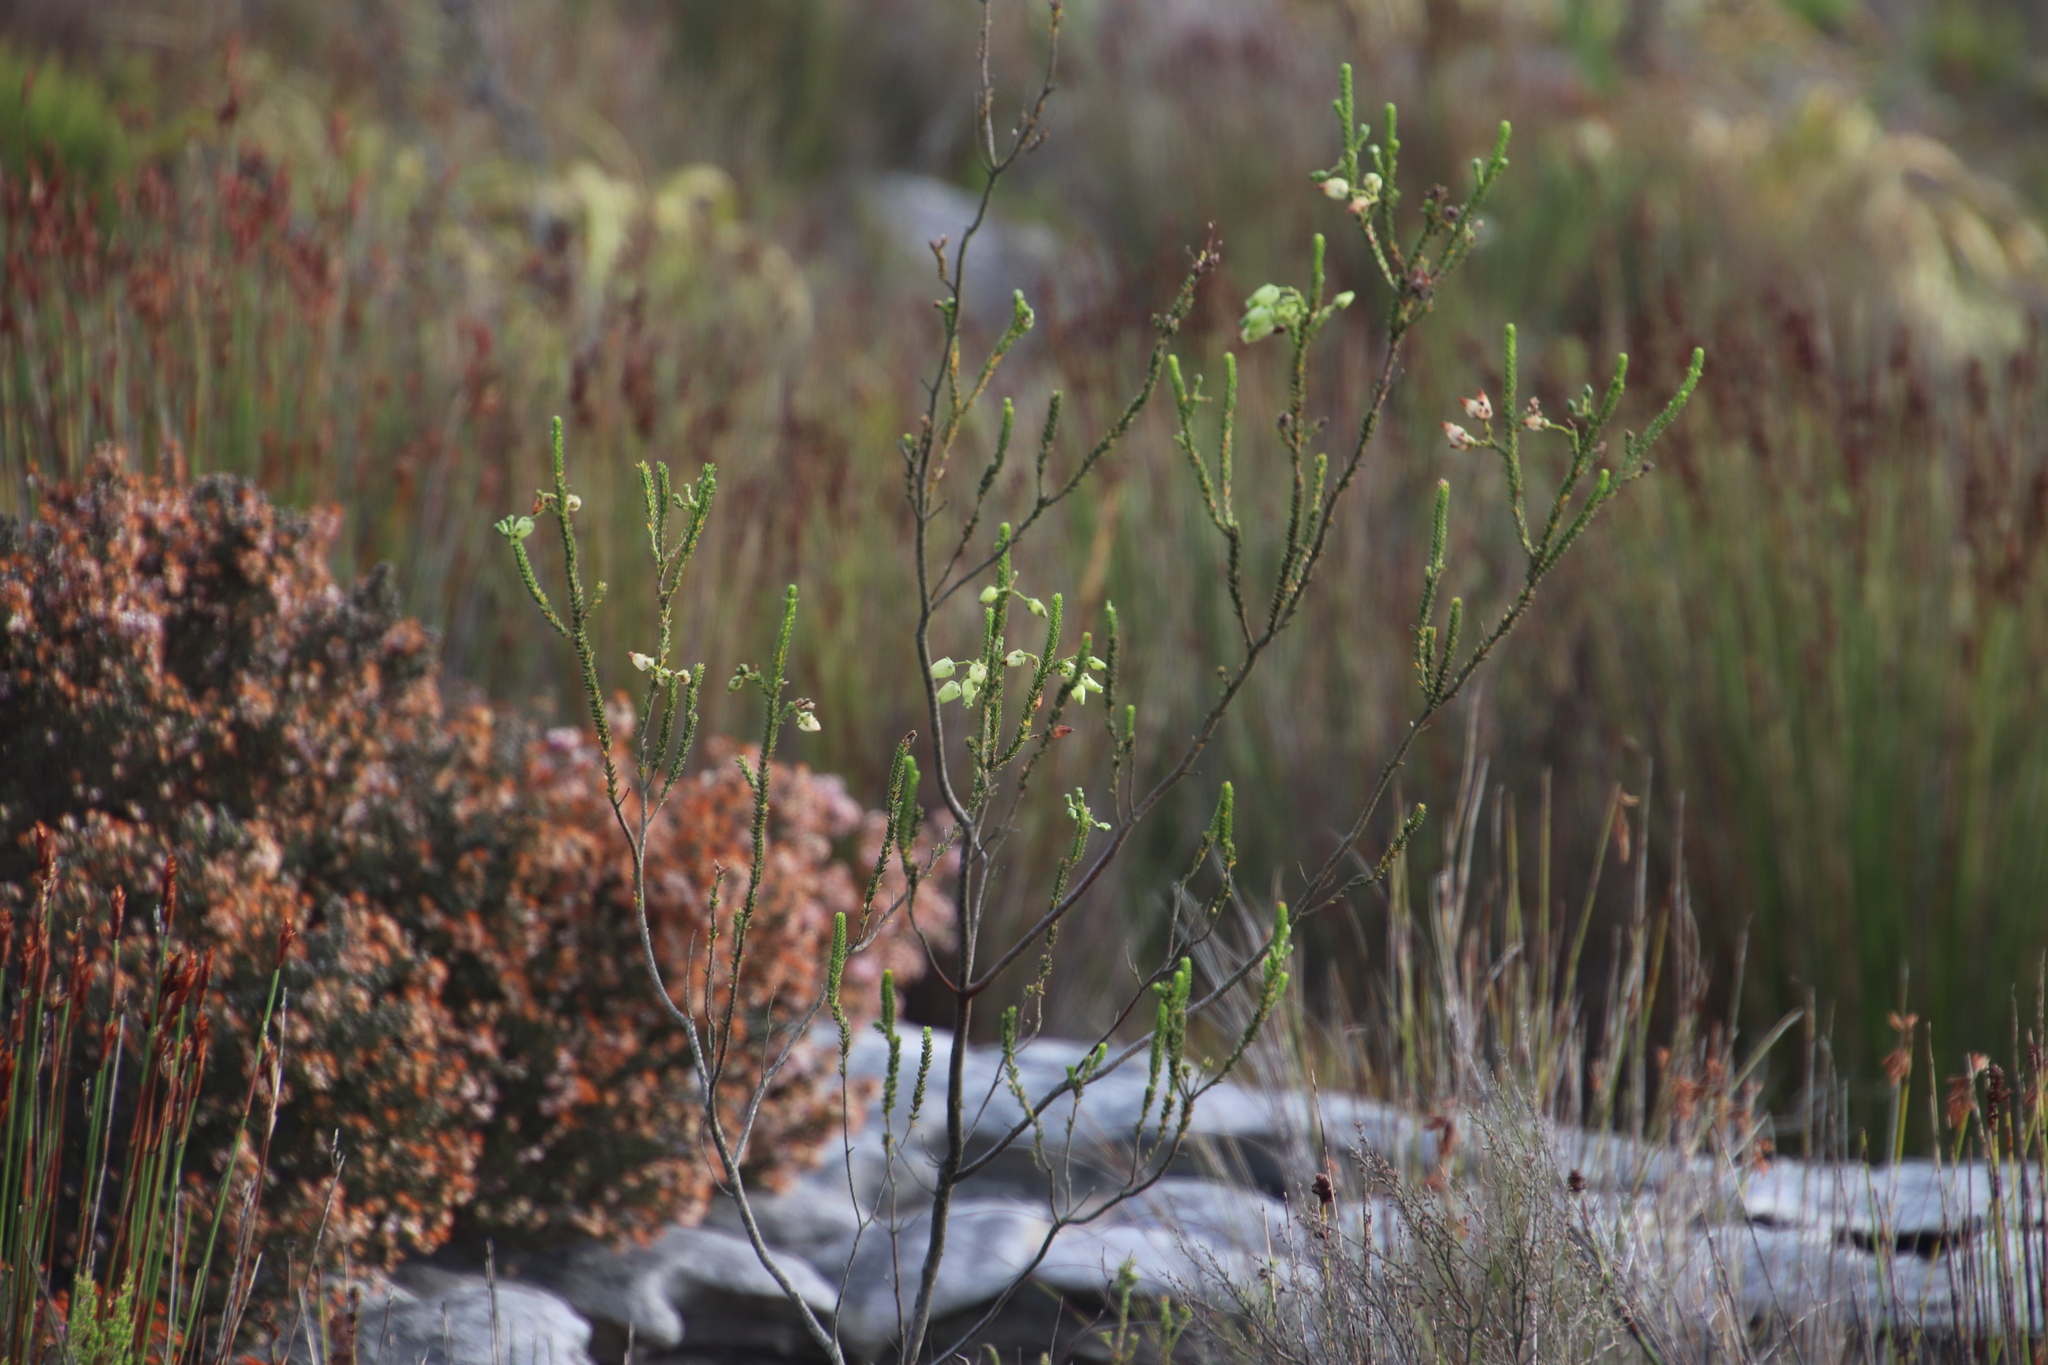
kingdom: Plantae
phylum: Tracheophyta
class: Magnoliopsida
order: Ericales
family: Ericaceae
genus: Erica
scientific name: Erica urna-viridis
